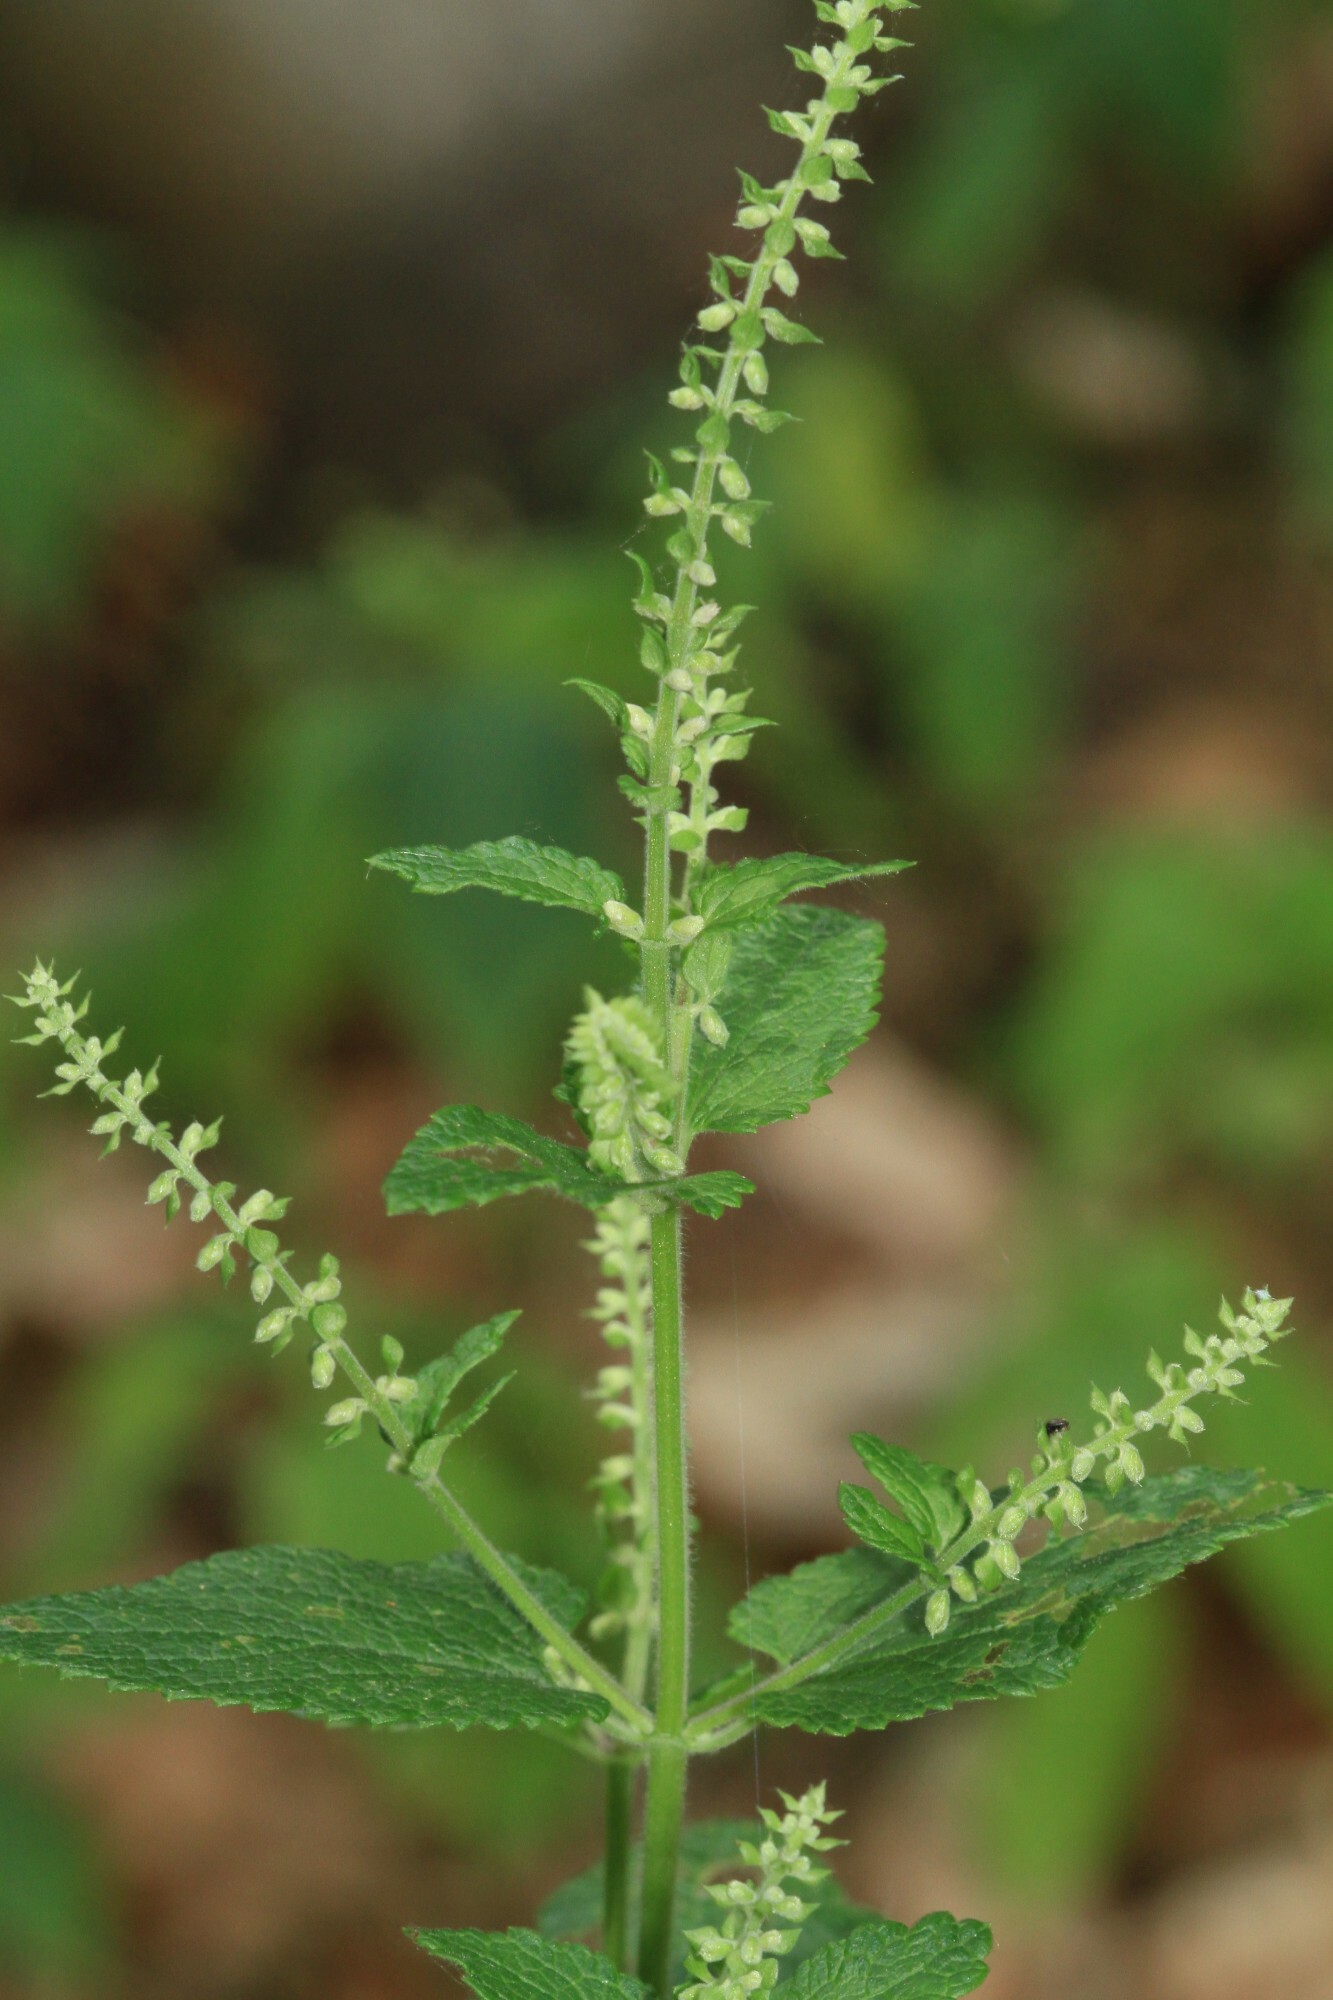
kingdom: Plantae
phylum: Tracheophyta
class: Magnoliopsida
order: Lamiales
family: Lamiaceae
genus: Teucrium
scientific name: Teucrium scorodonia
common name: Woodland germander
